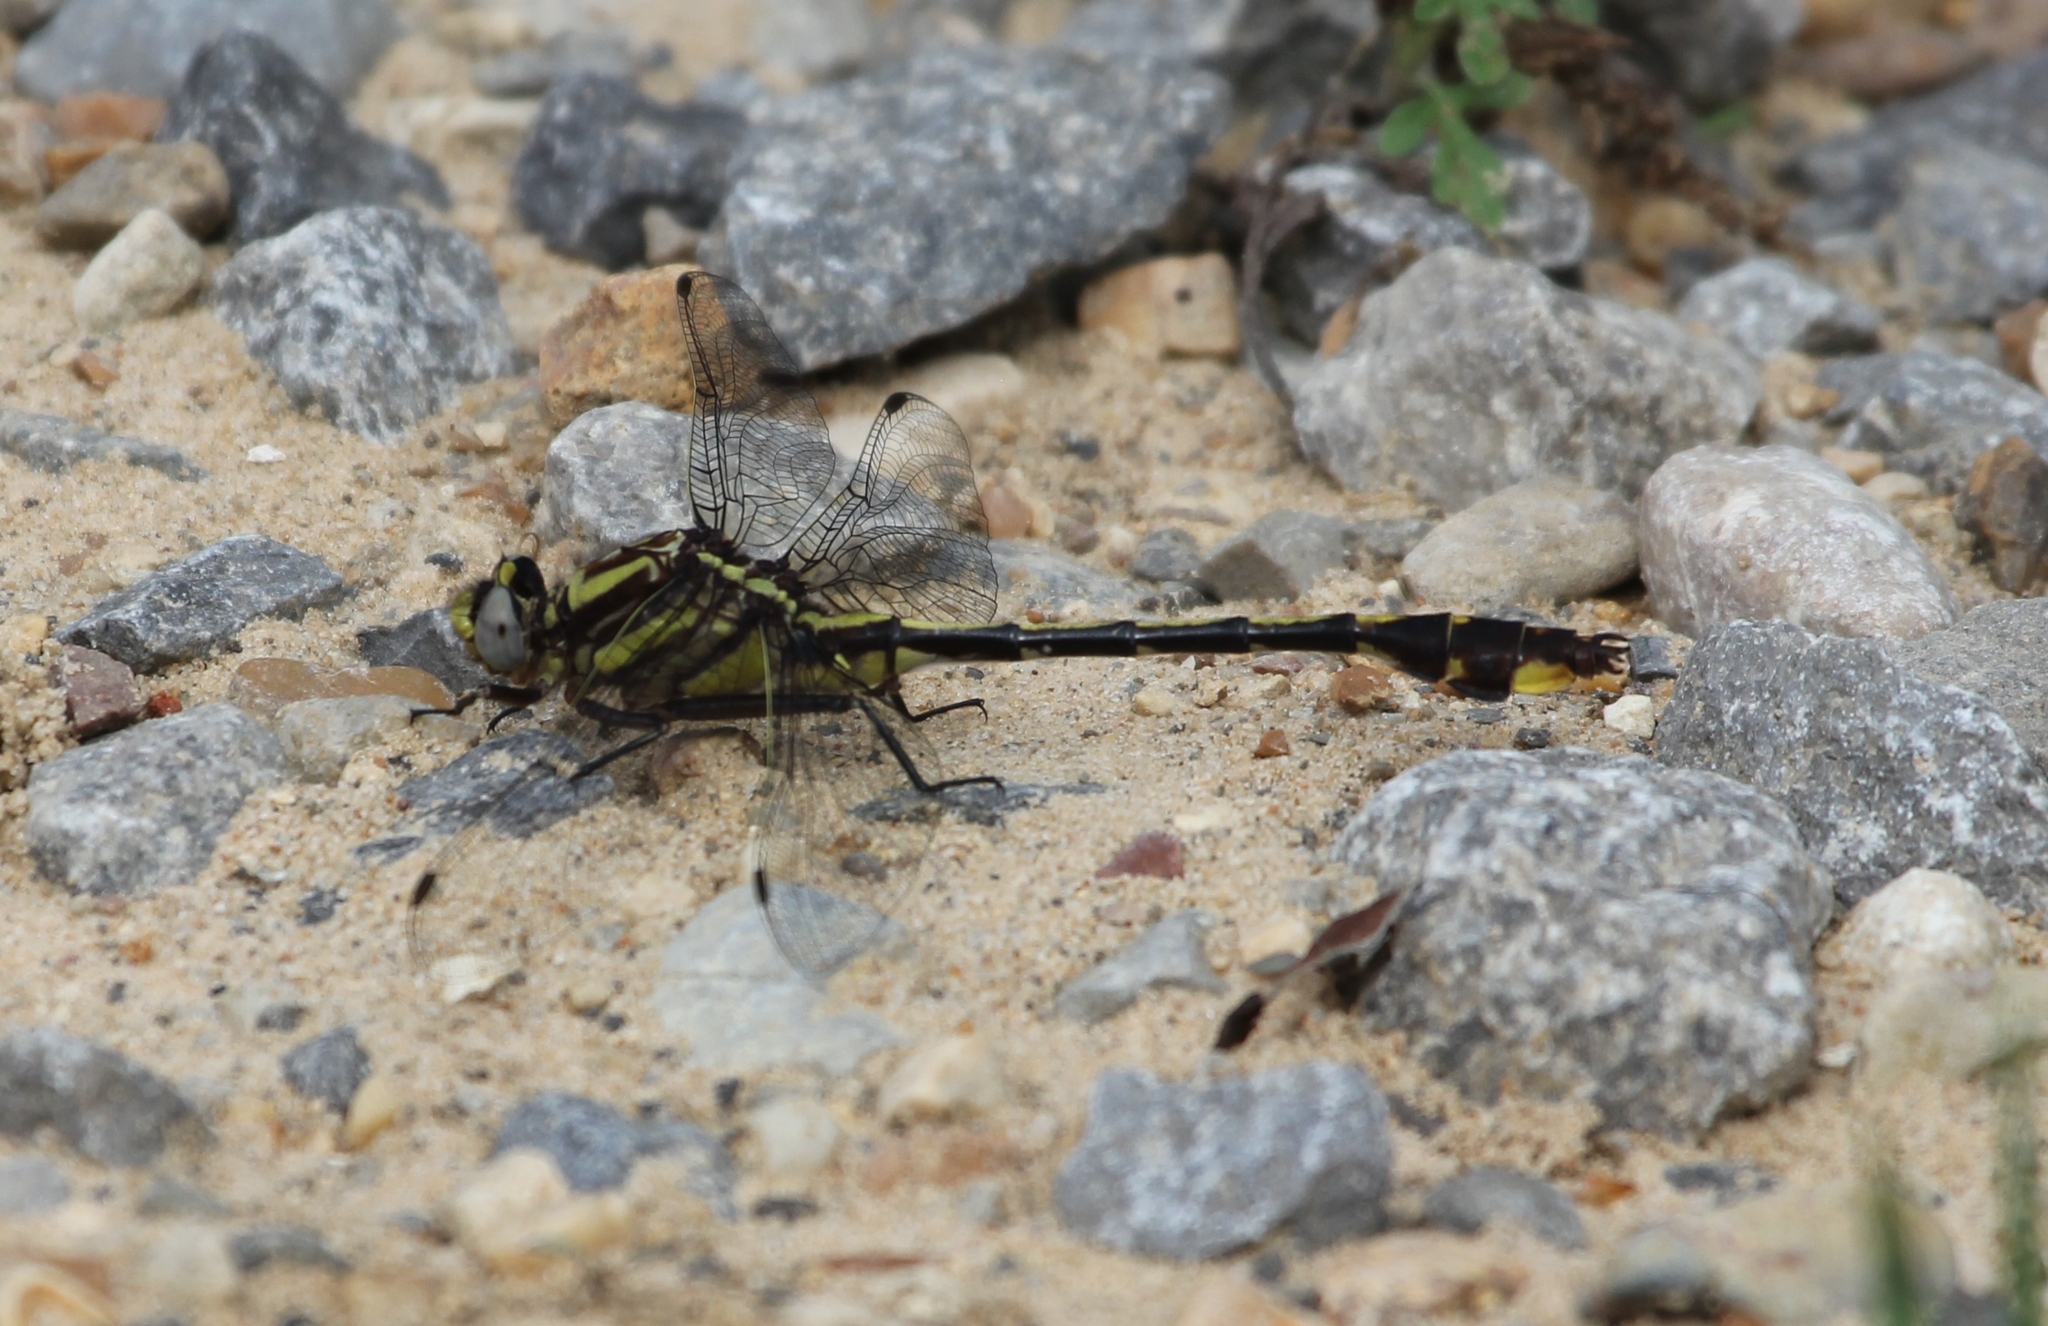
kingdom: Animalia
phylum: Arthropoda
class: Insecta
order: Odonata
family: Gomphidae
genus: Gomphurus
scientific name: Gomphurus hybridus
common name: Cocoa clubtail
